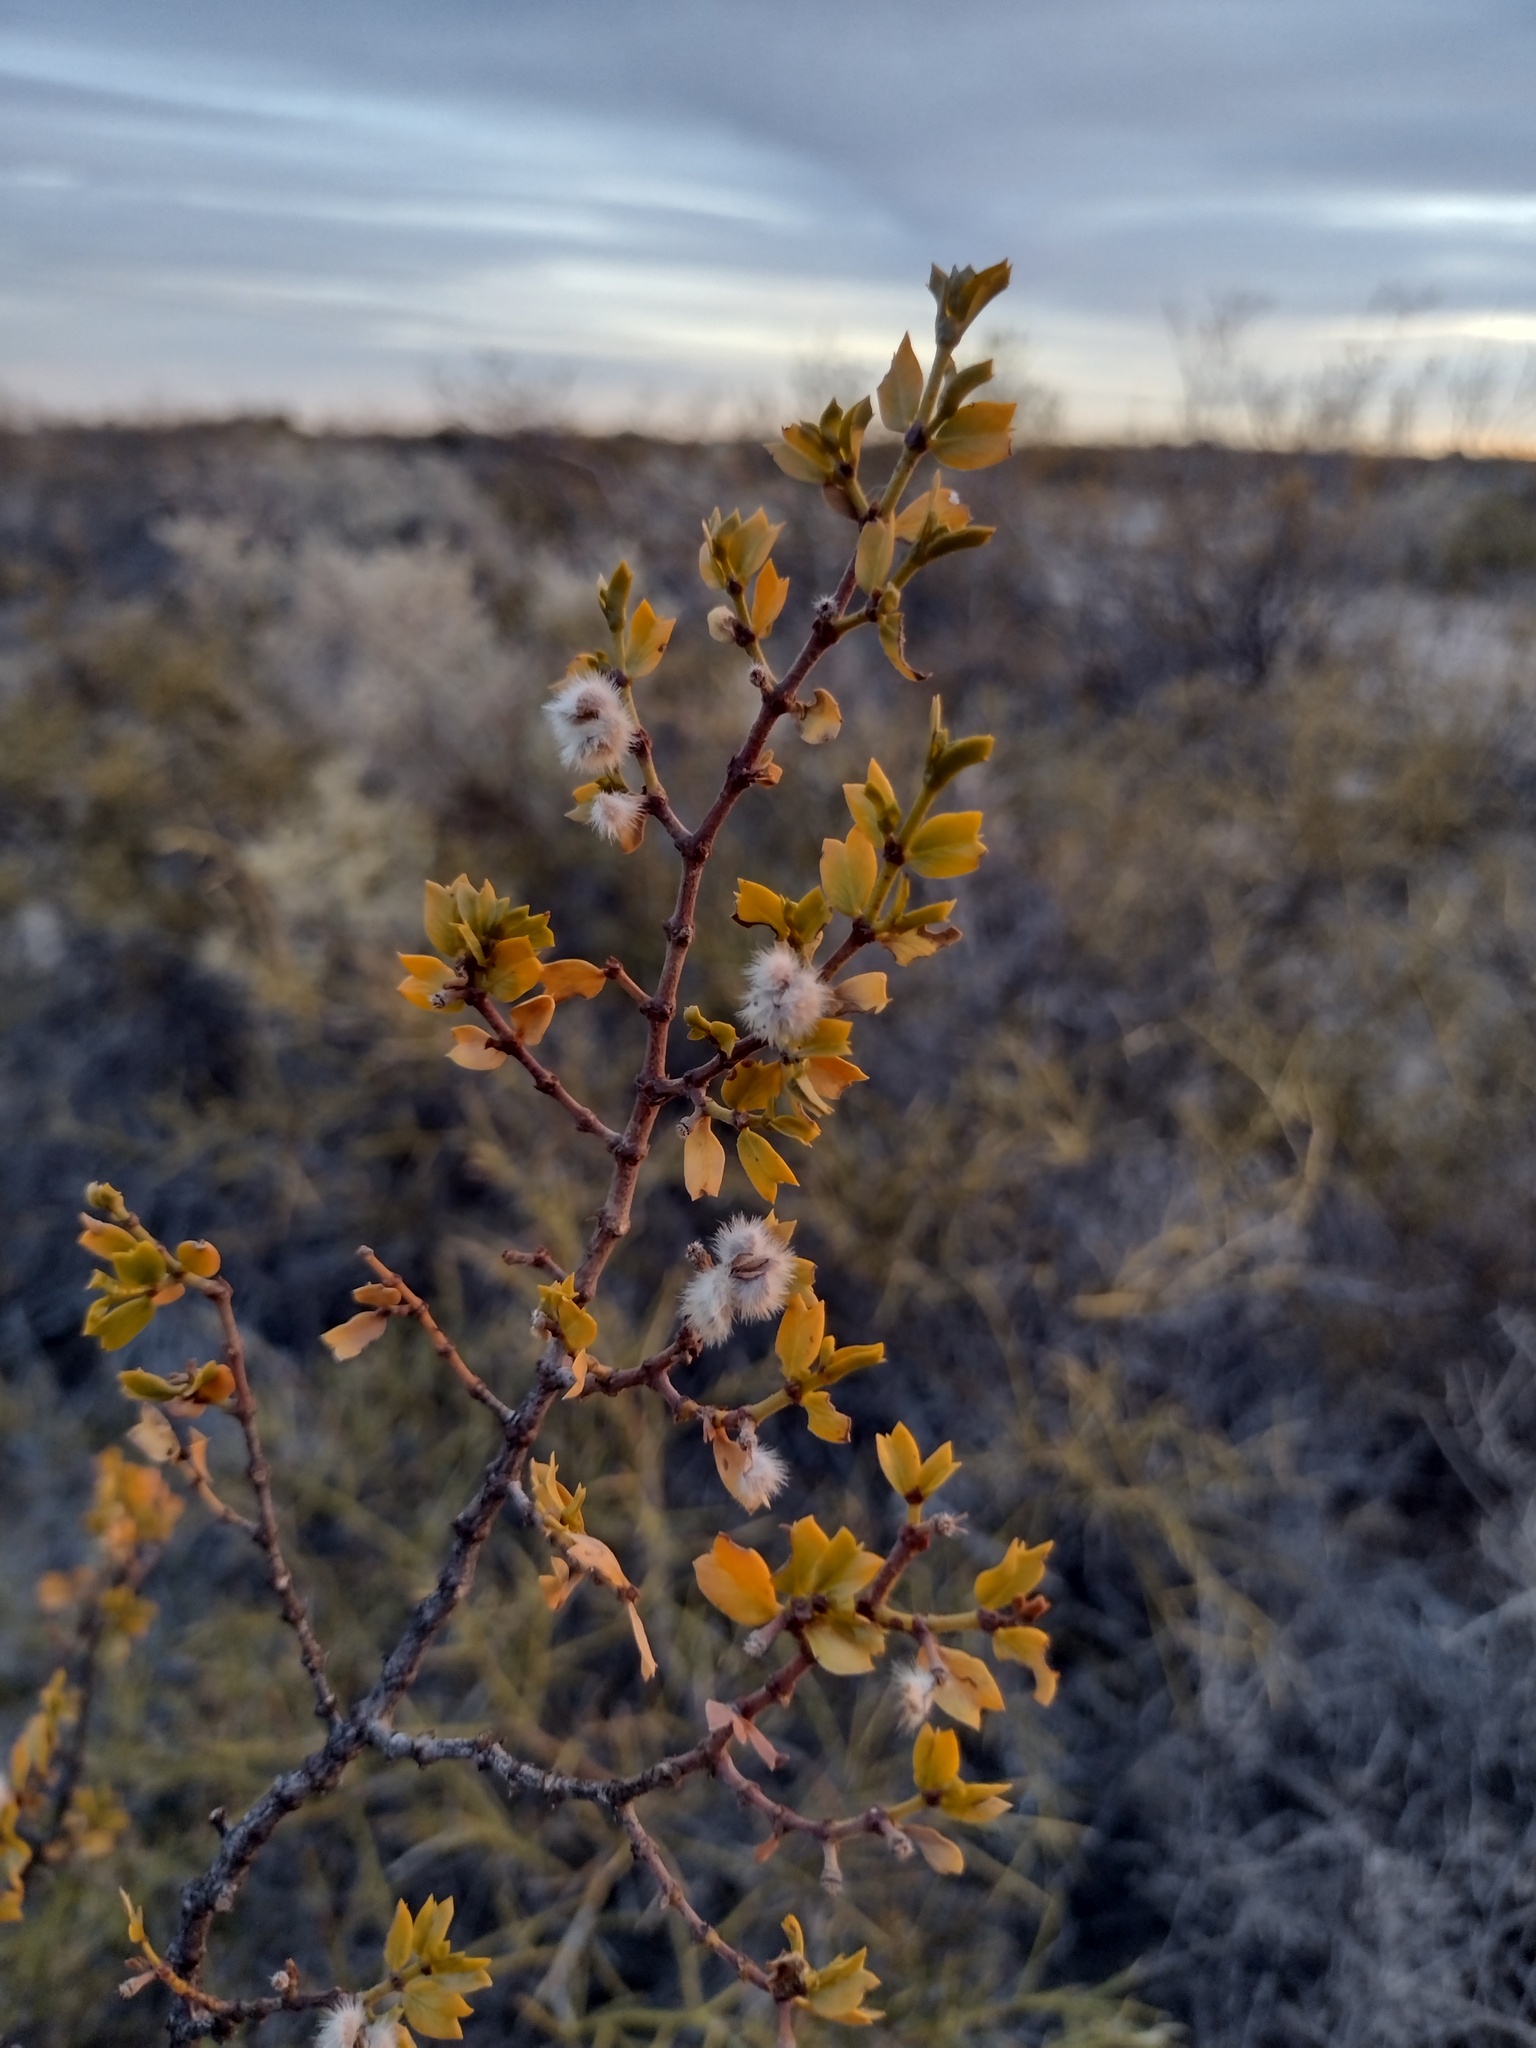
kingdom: Plantae
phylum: Tracheophyta
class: Magnoliopsida
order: Zygophyllales
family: Zygophyllaceae
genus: Larrea
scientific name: Larrea cuneifolia
